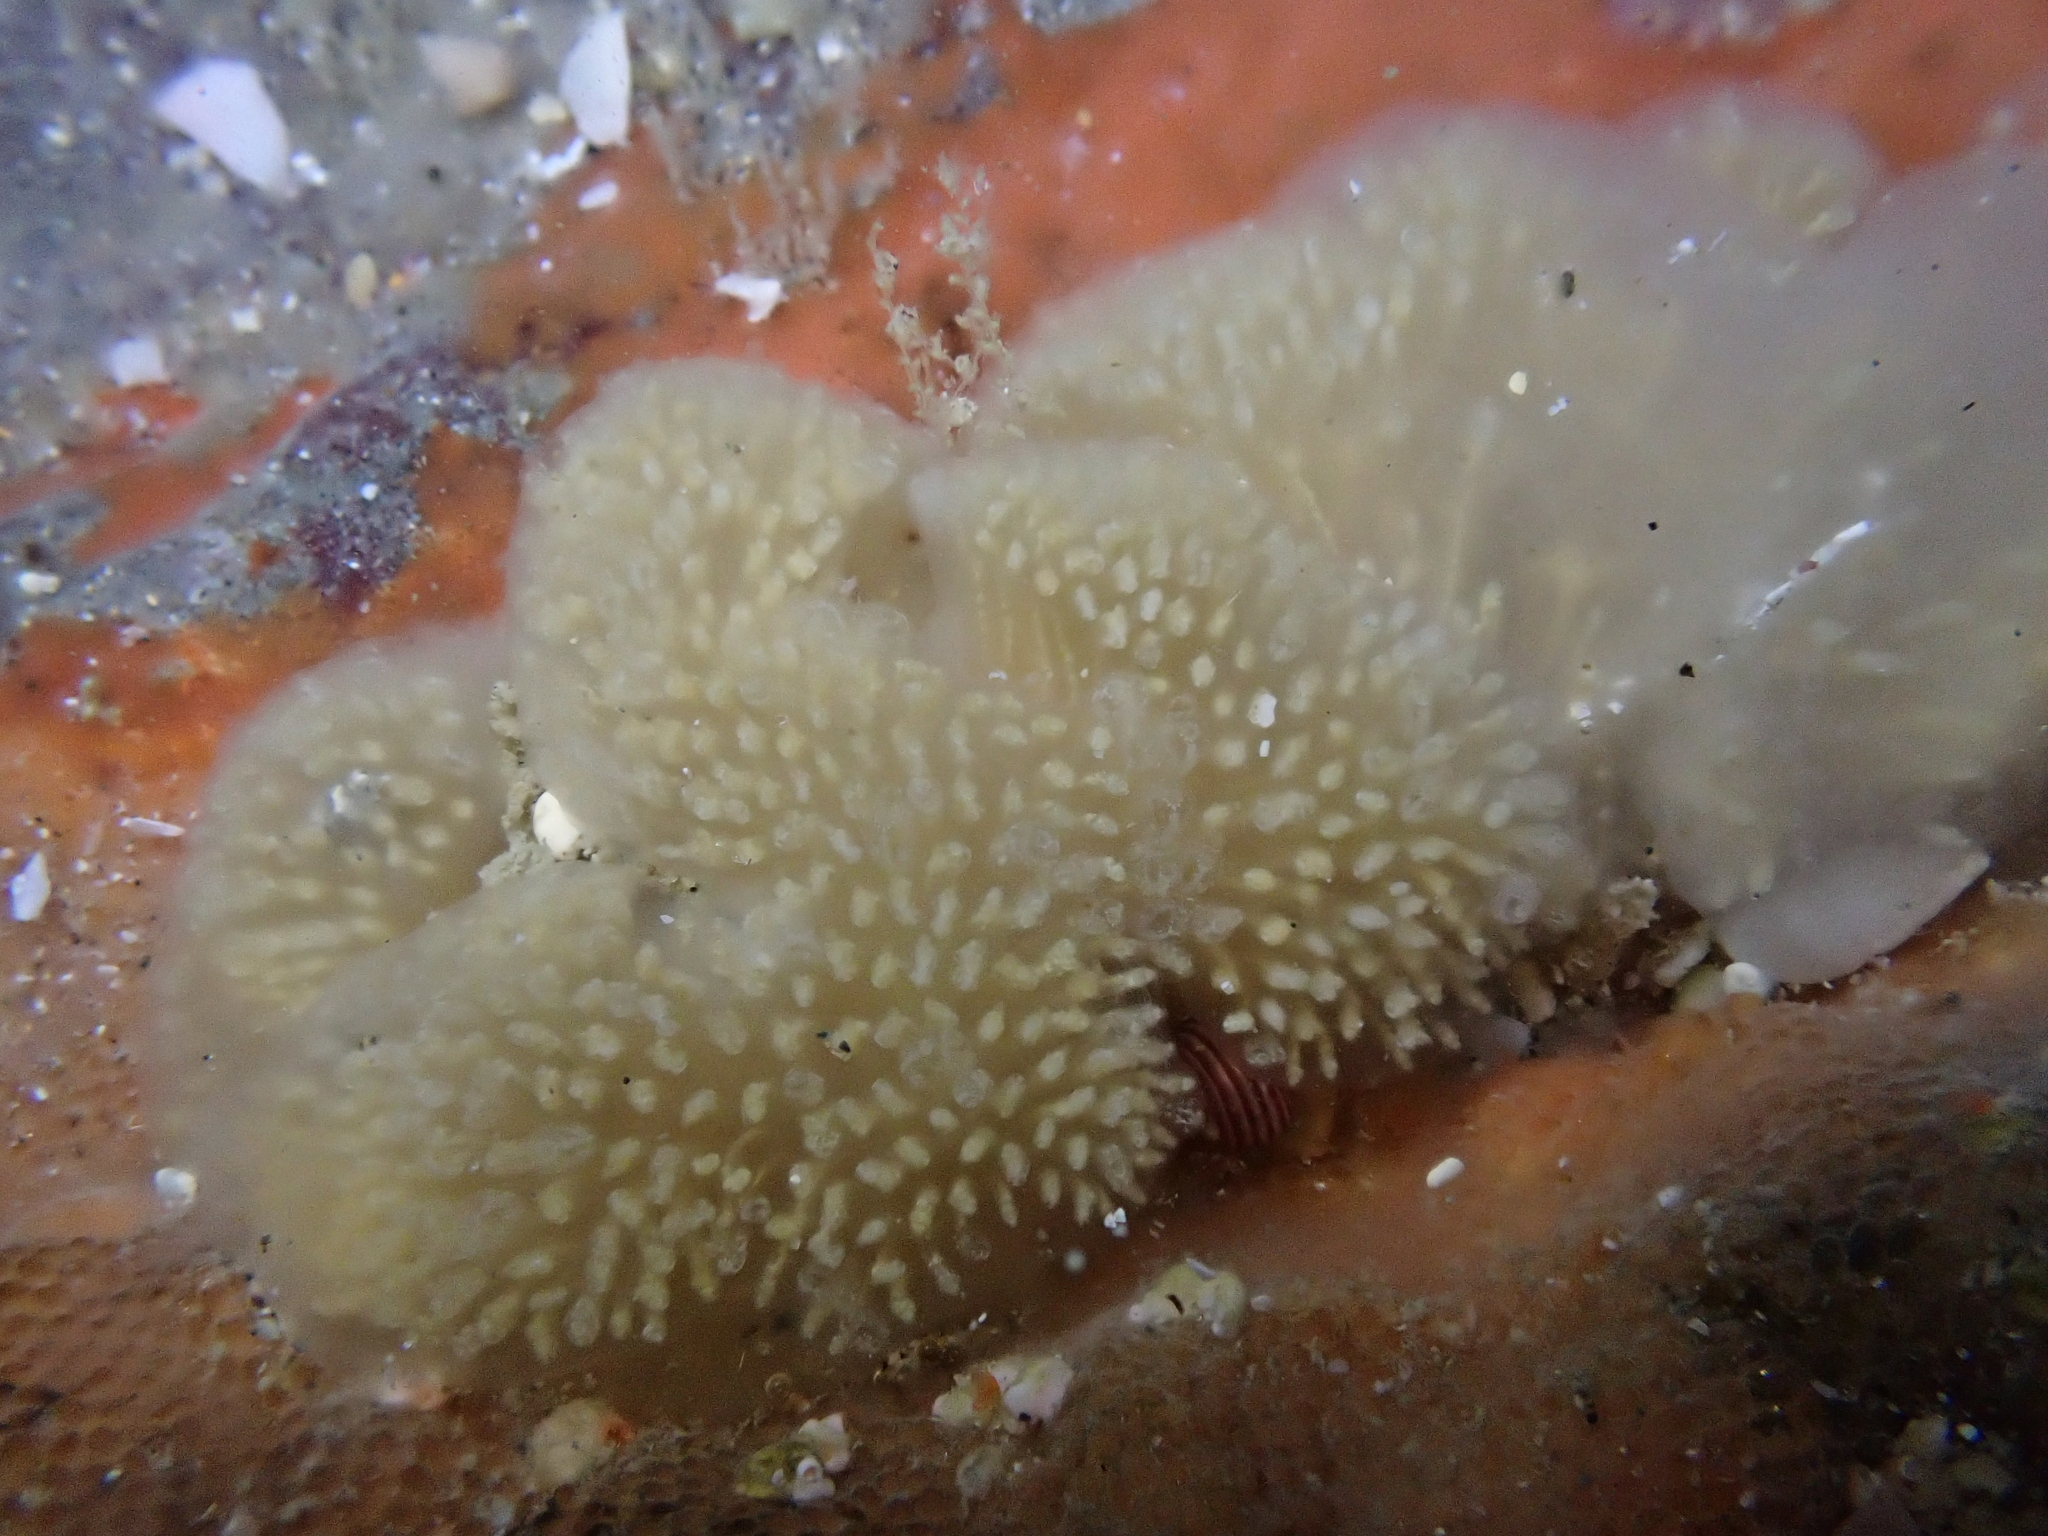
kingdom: Animalia
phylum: Chordata
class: Ascidiacea
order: Aplousobranchia
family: Pseudodistomidae
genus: Pseudodistoma
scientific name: Pseudodistoma opacum
